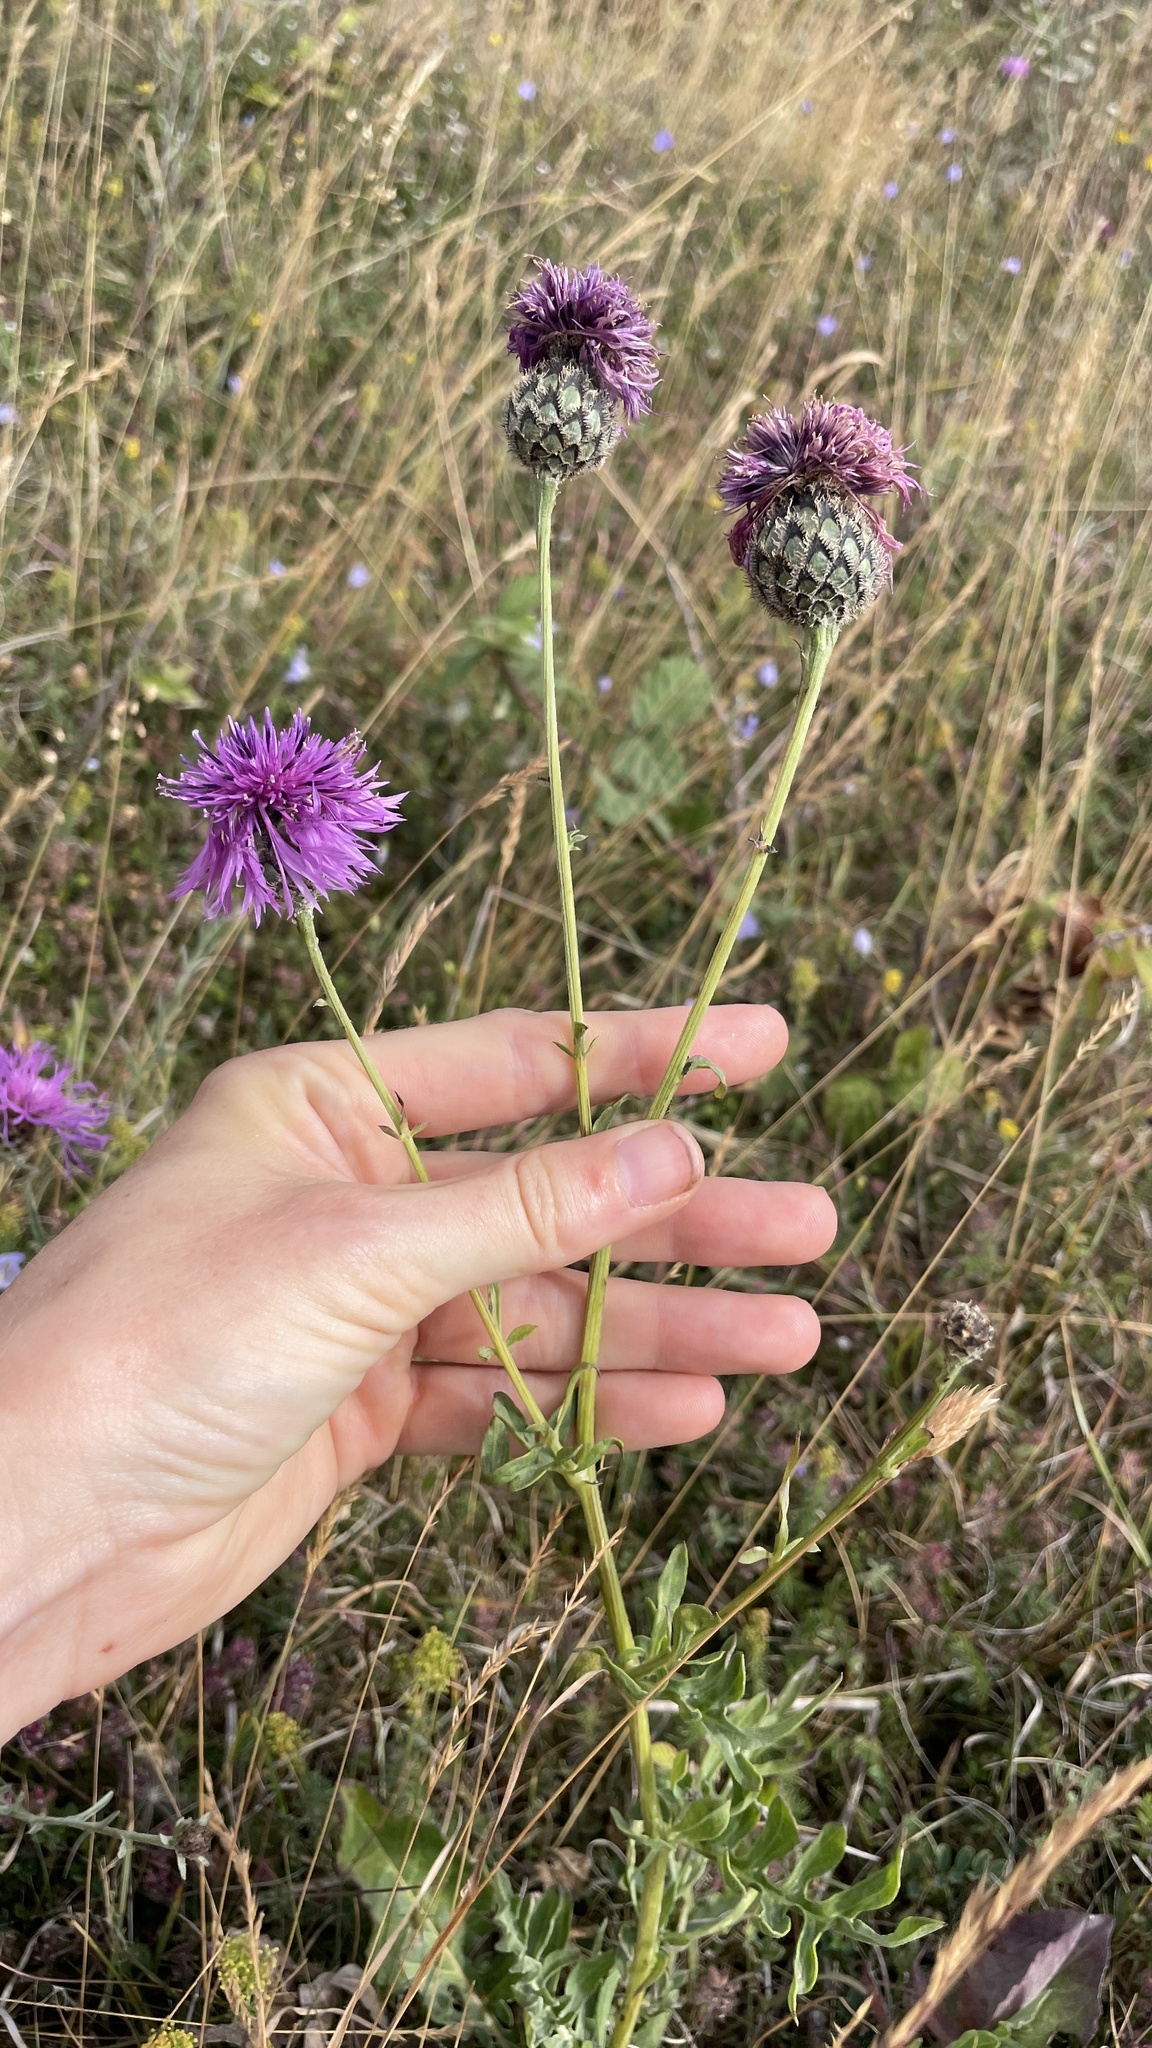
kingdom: Plantae
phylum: Tracheophyta
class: Magnoliopsida
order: Asterales
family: Asteraceae
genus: Centaurea
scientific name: Centaurea scabiosa
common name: Greater knapweed
